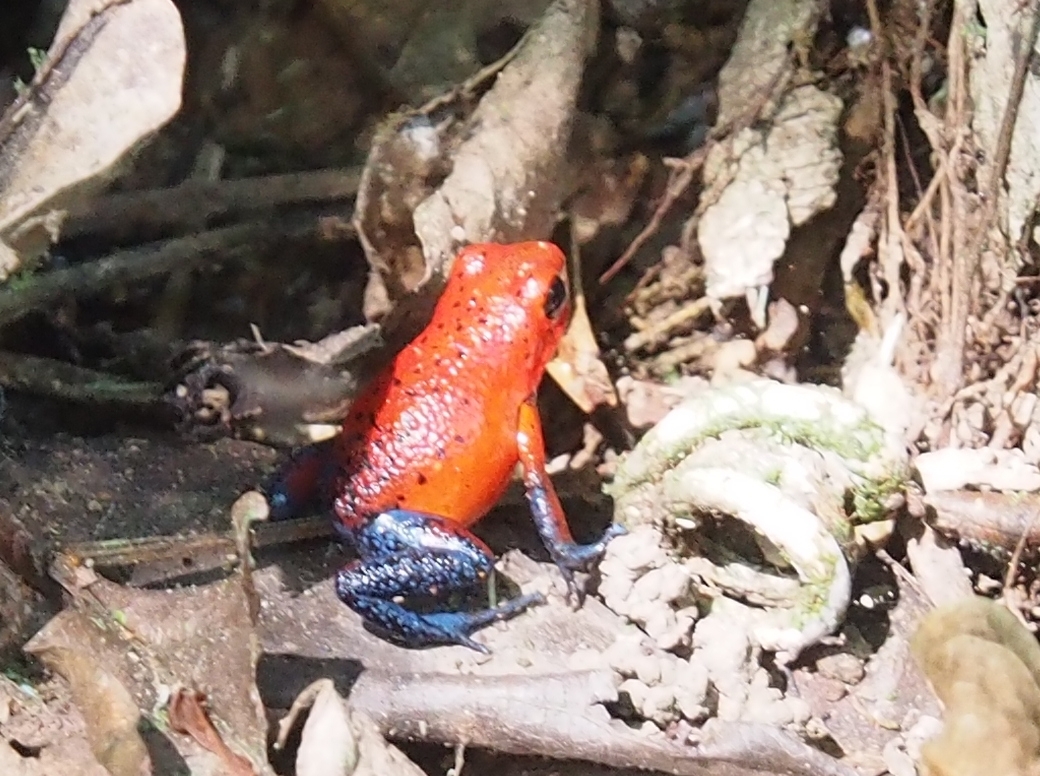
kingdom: Animalia
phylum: Chordata
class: Amphibia
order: Anura
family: Dendrobatidae
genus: Oophaga
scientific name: Oophaga pumilio
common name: Flaming poison frog
